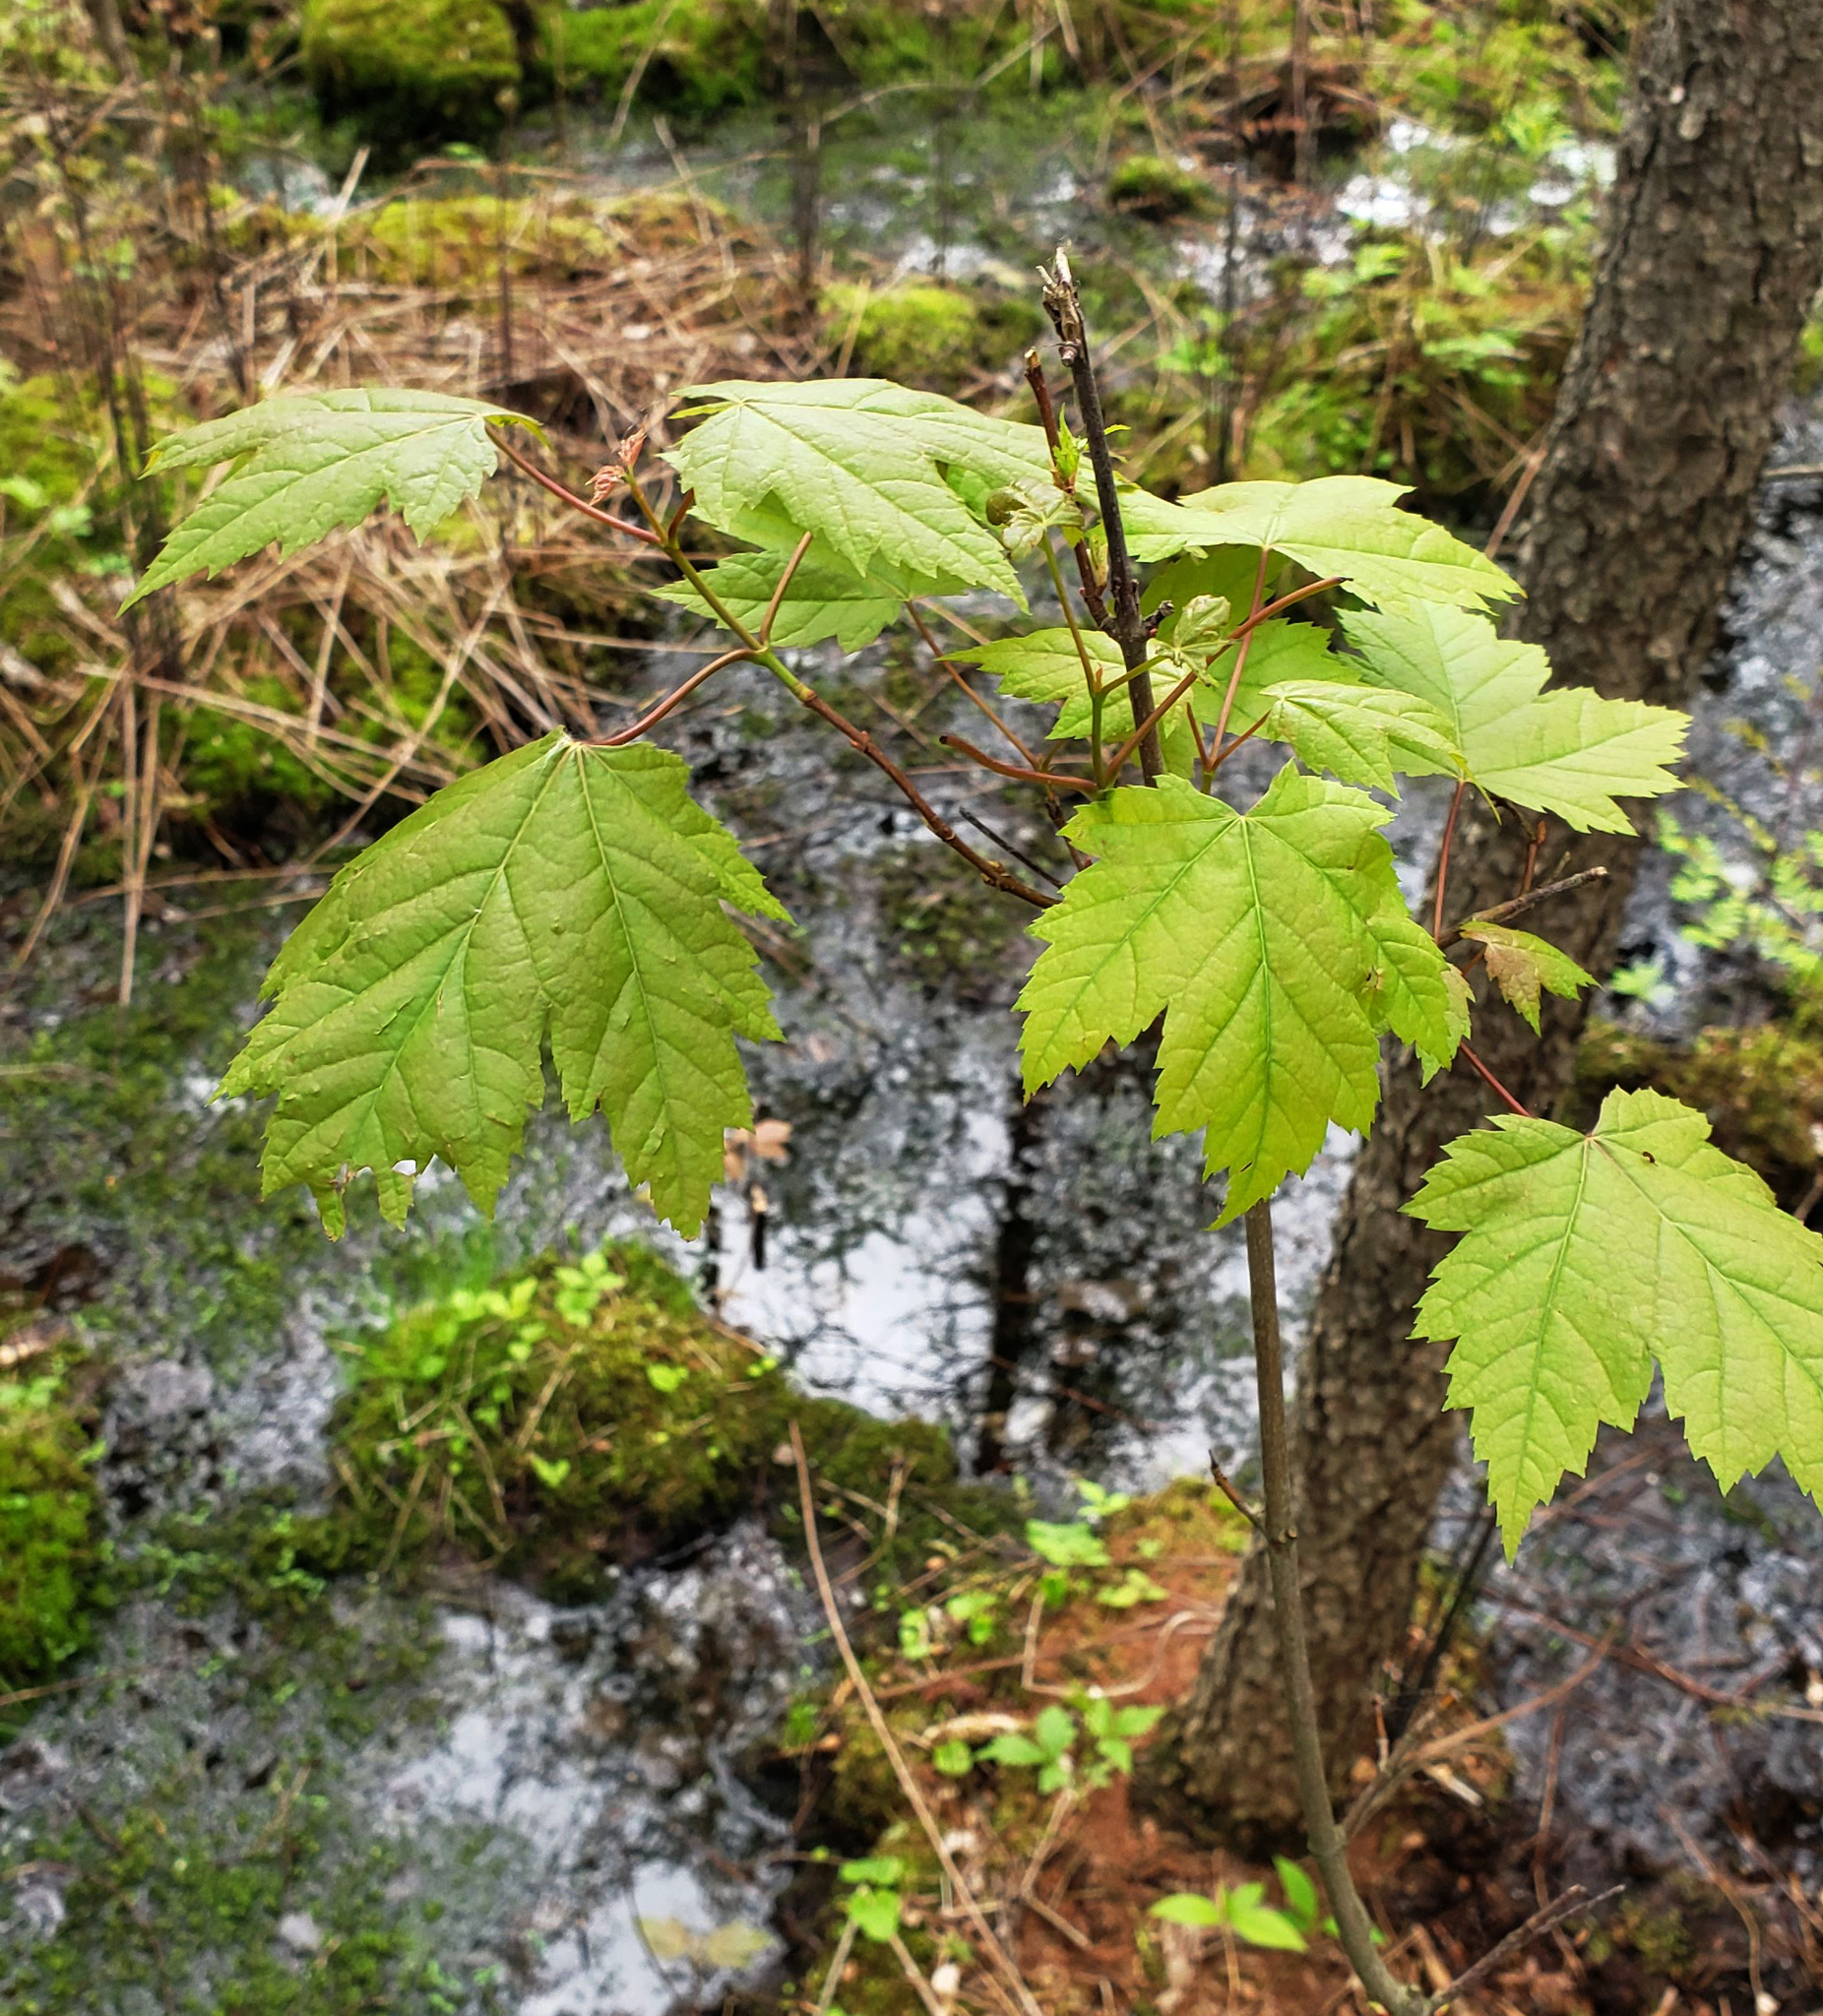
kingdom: Plantae
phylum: Tracheophyta
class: Magnoliopsida
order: Sapindales
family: Sapindaceae
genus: Acer
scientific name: Acer rubrum
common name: Red maple
